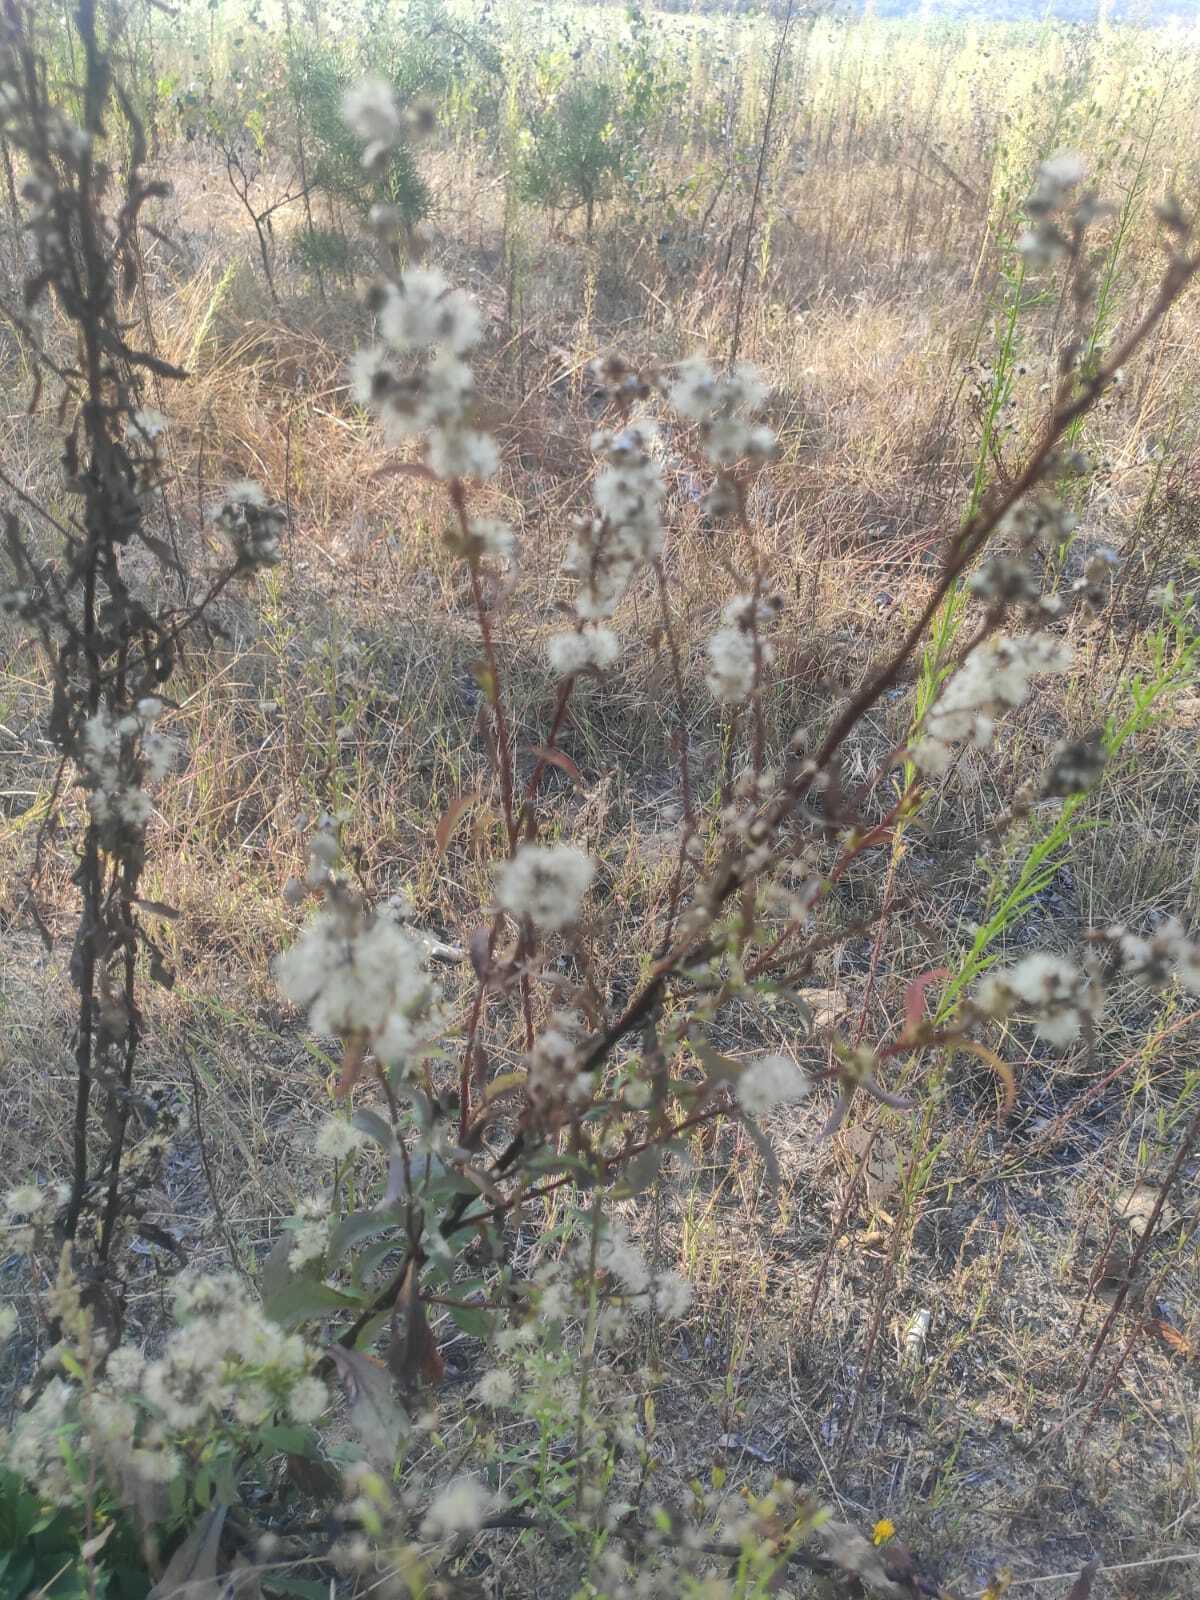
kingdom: Plantae
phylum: Tracheophyta
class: Magnoliopsida
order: Asterales
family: Asteraceae
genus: Solidago
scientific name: Solidago virgaurea
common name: Goldenrod
